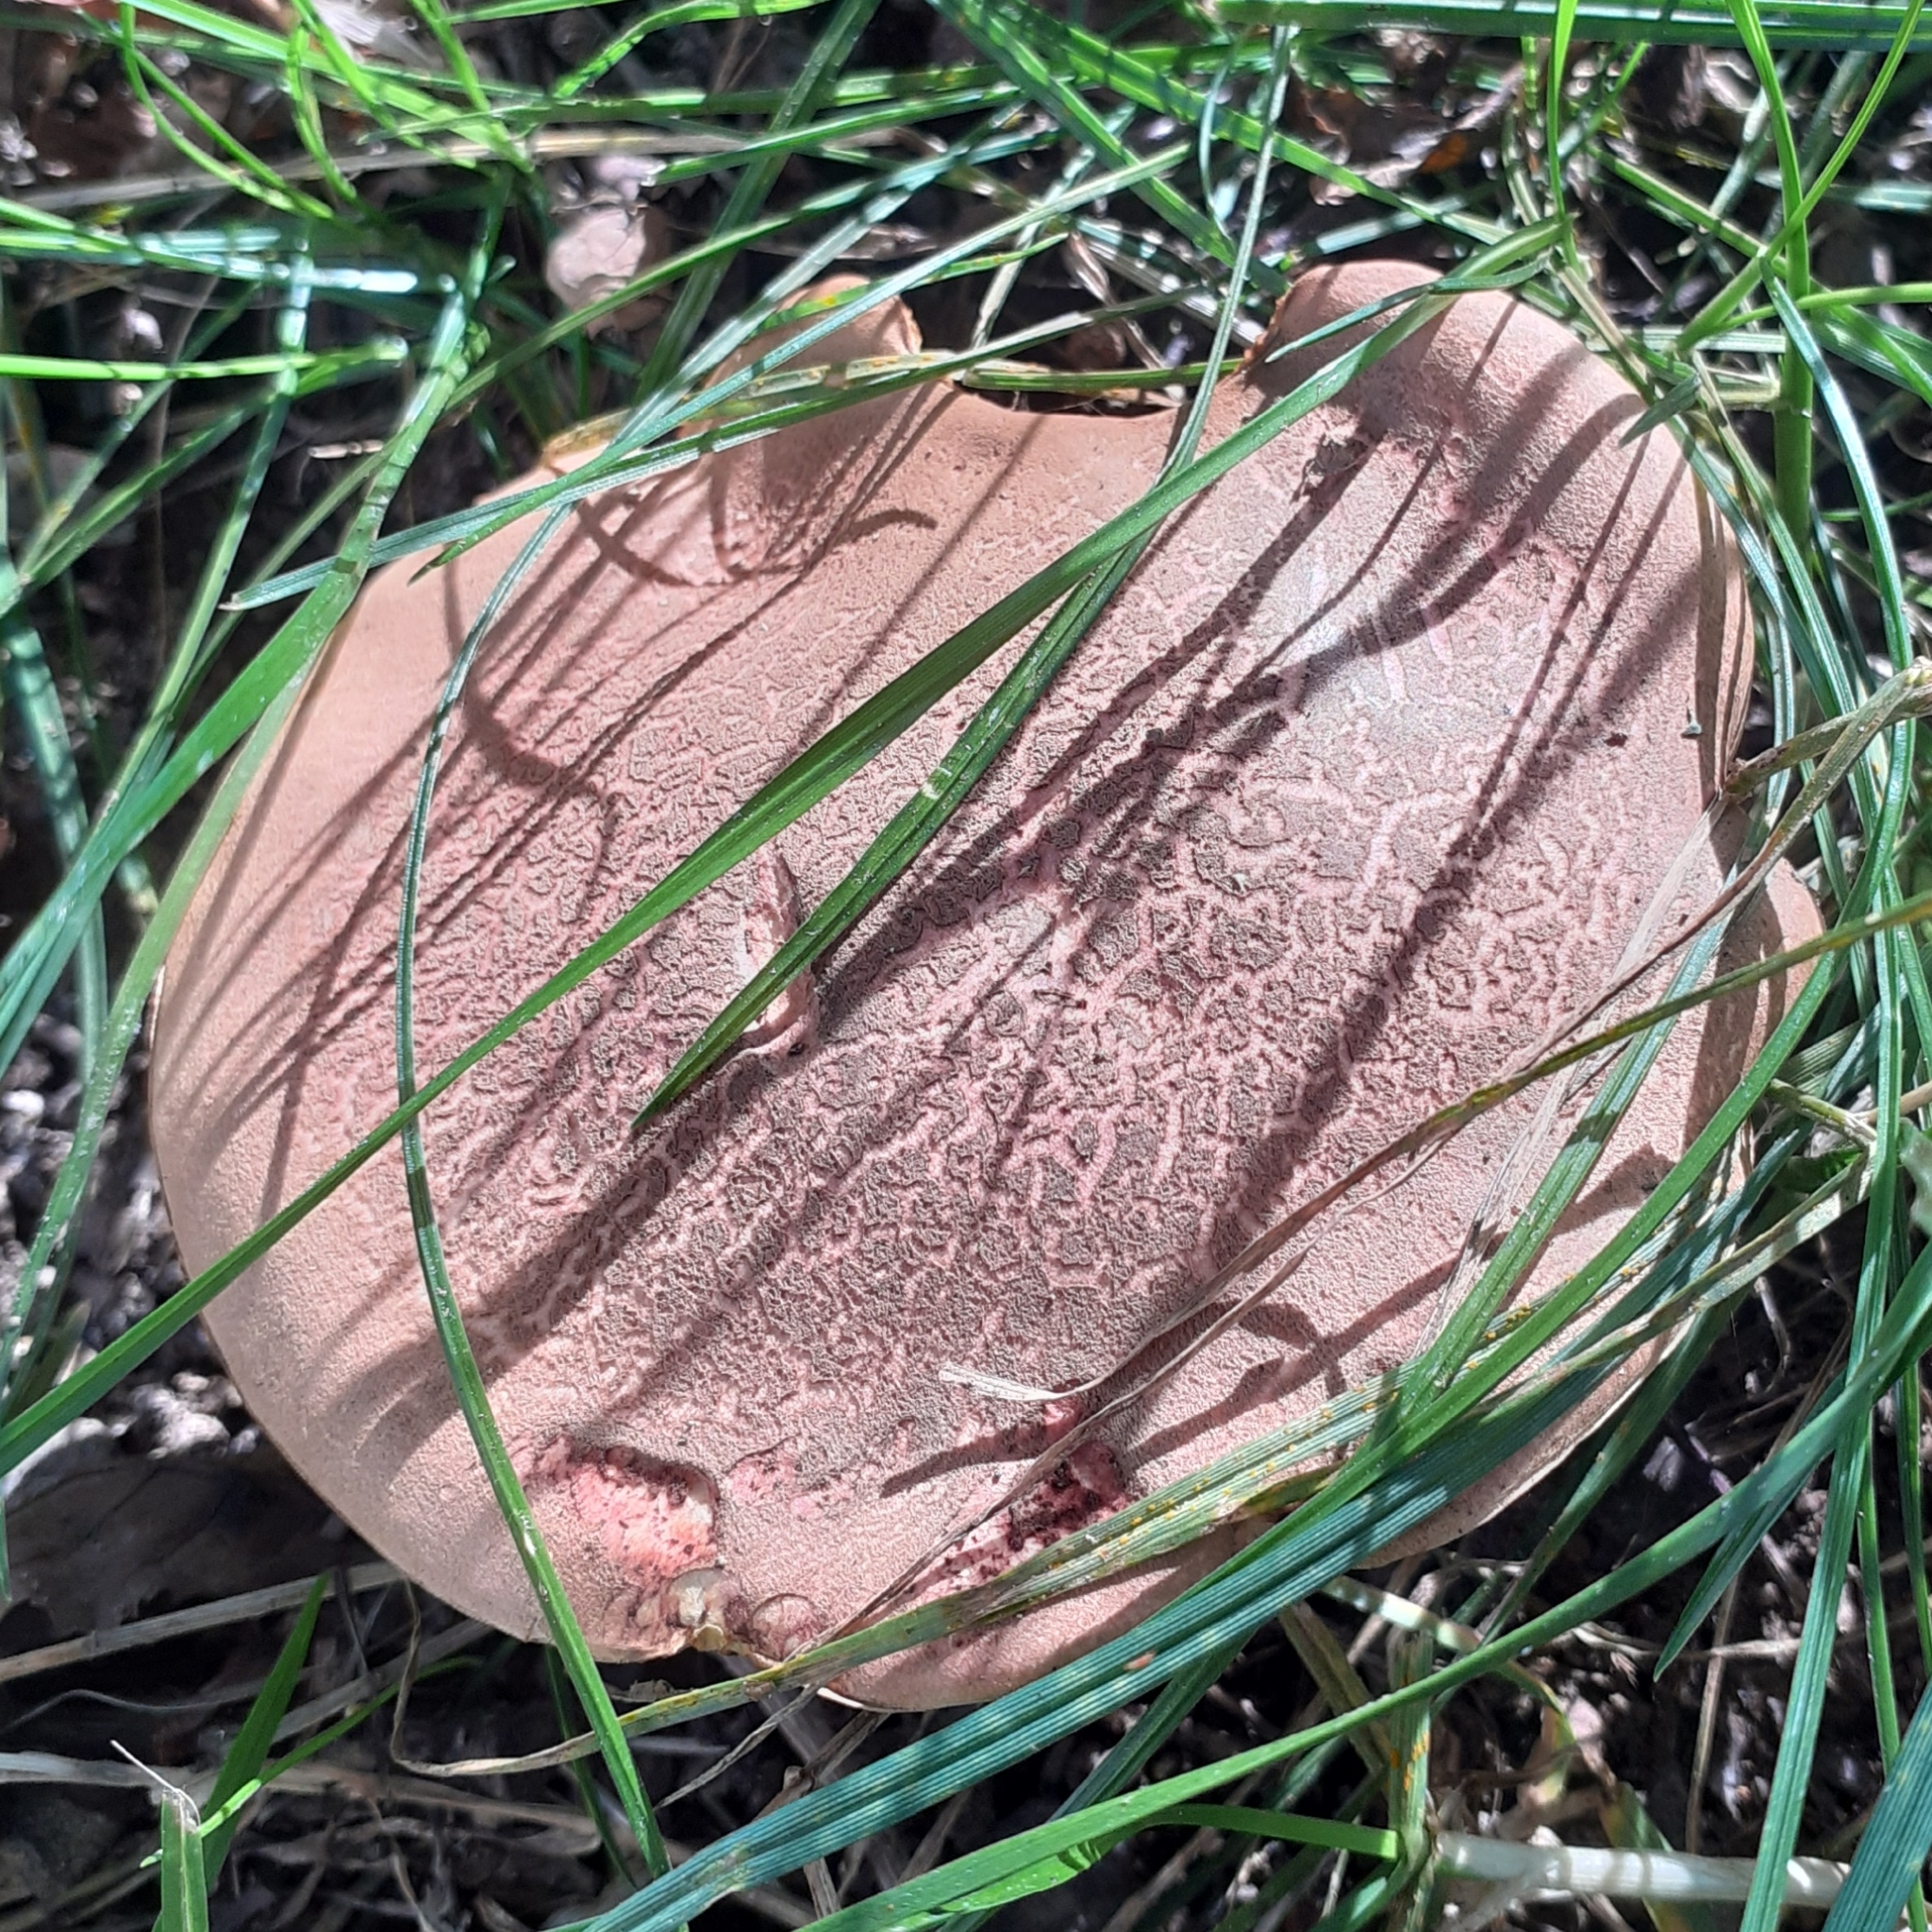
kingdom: Fungi
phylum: Basidiomycota
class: Agaricomycetes
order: Boletales
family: Boletaceae
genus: Xerocomellus
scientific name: Xerocomellus chrysenteron
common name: Red-cracking bolete
